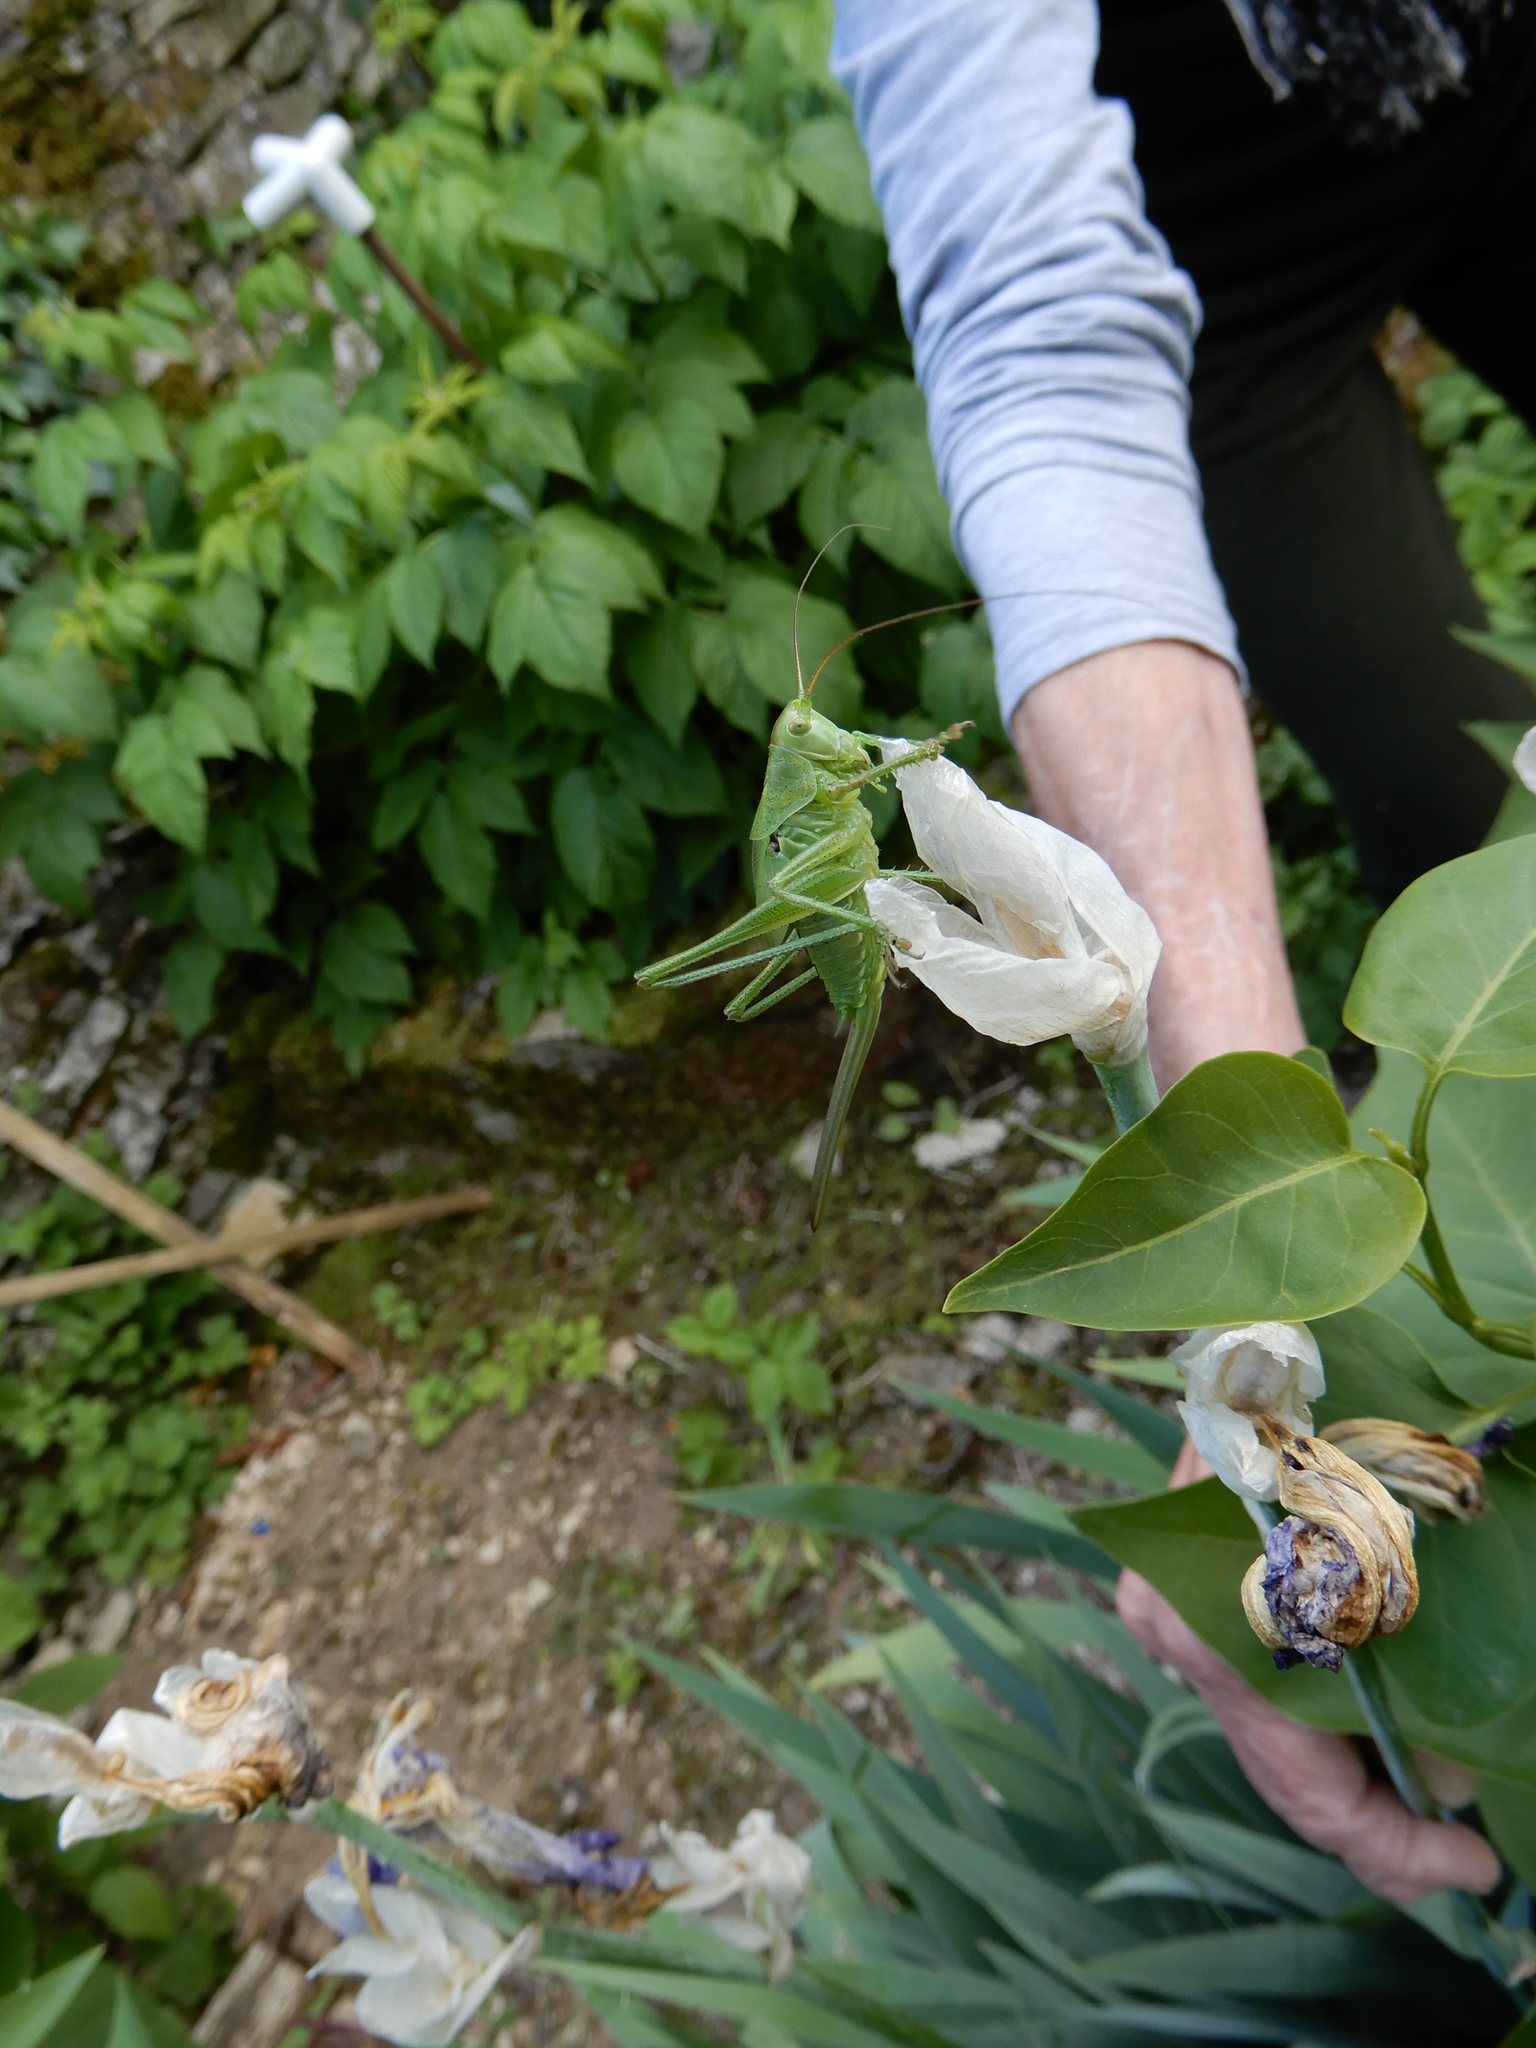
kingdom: Animalia
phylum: Arthropoda
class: Insecta
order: Orthoptera
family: Tettigoniidae
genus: Tettigonia
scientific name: Tettigonia viridissima
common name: Great green bush-cricket
